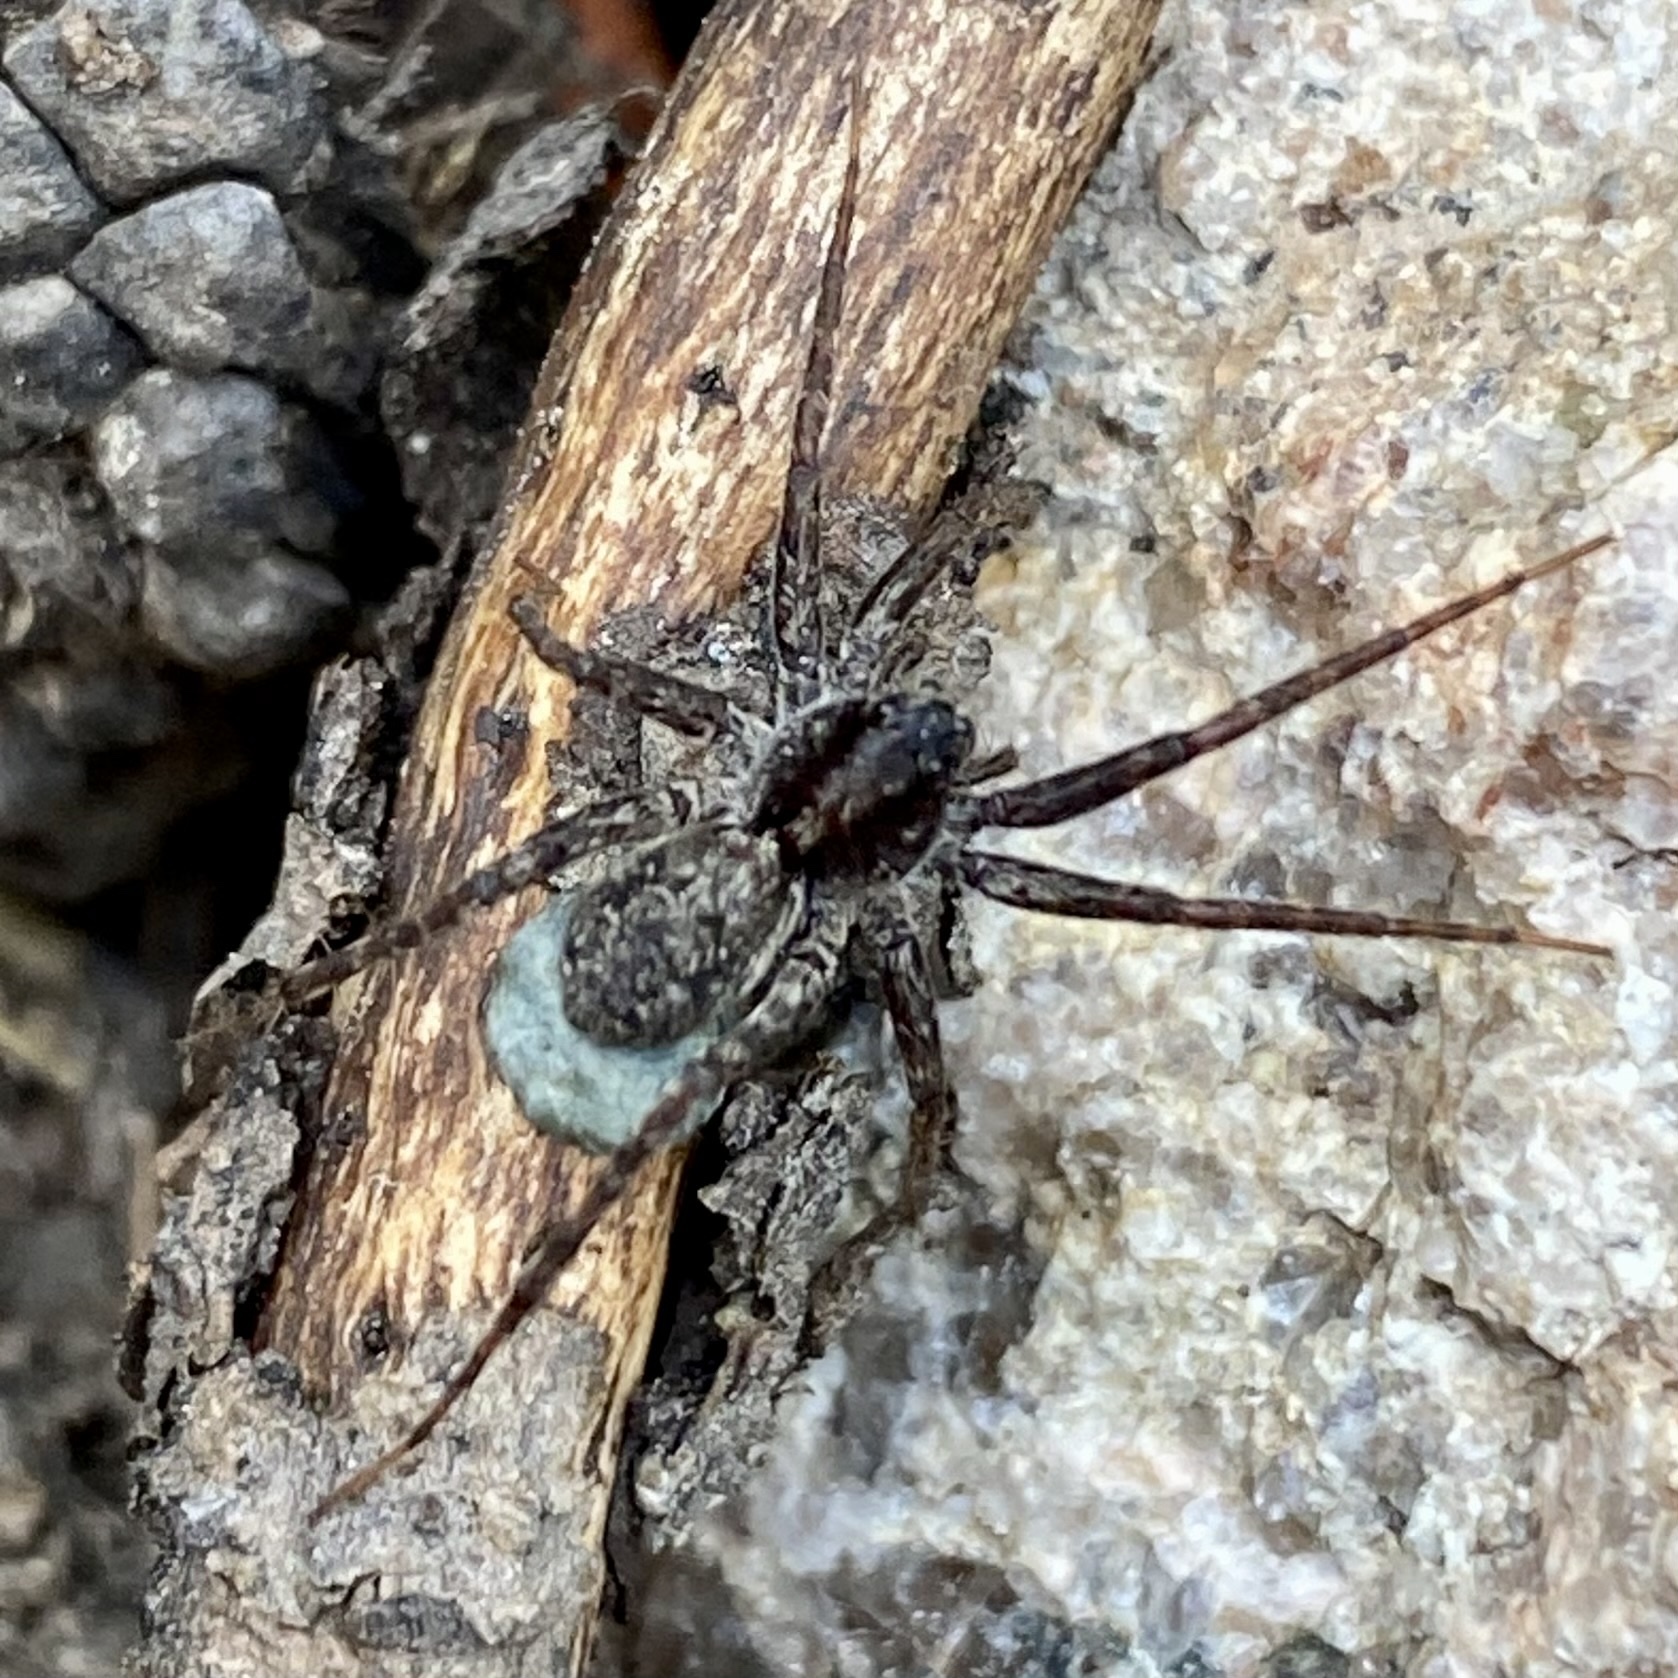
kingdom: Animalia
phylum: Arthropoda
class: Arachnida
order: Araneae
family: Lycosidae
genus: Pardosa
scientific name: Pardosa
